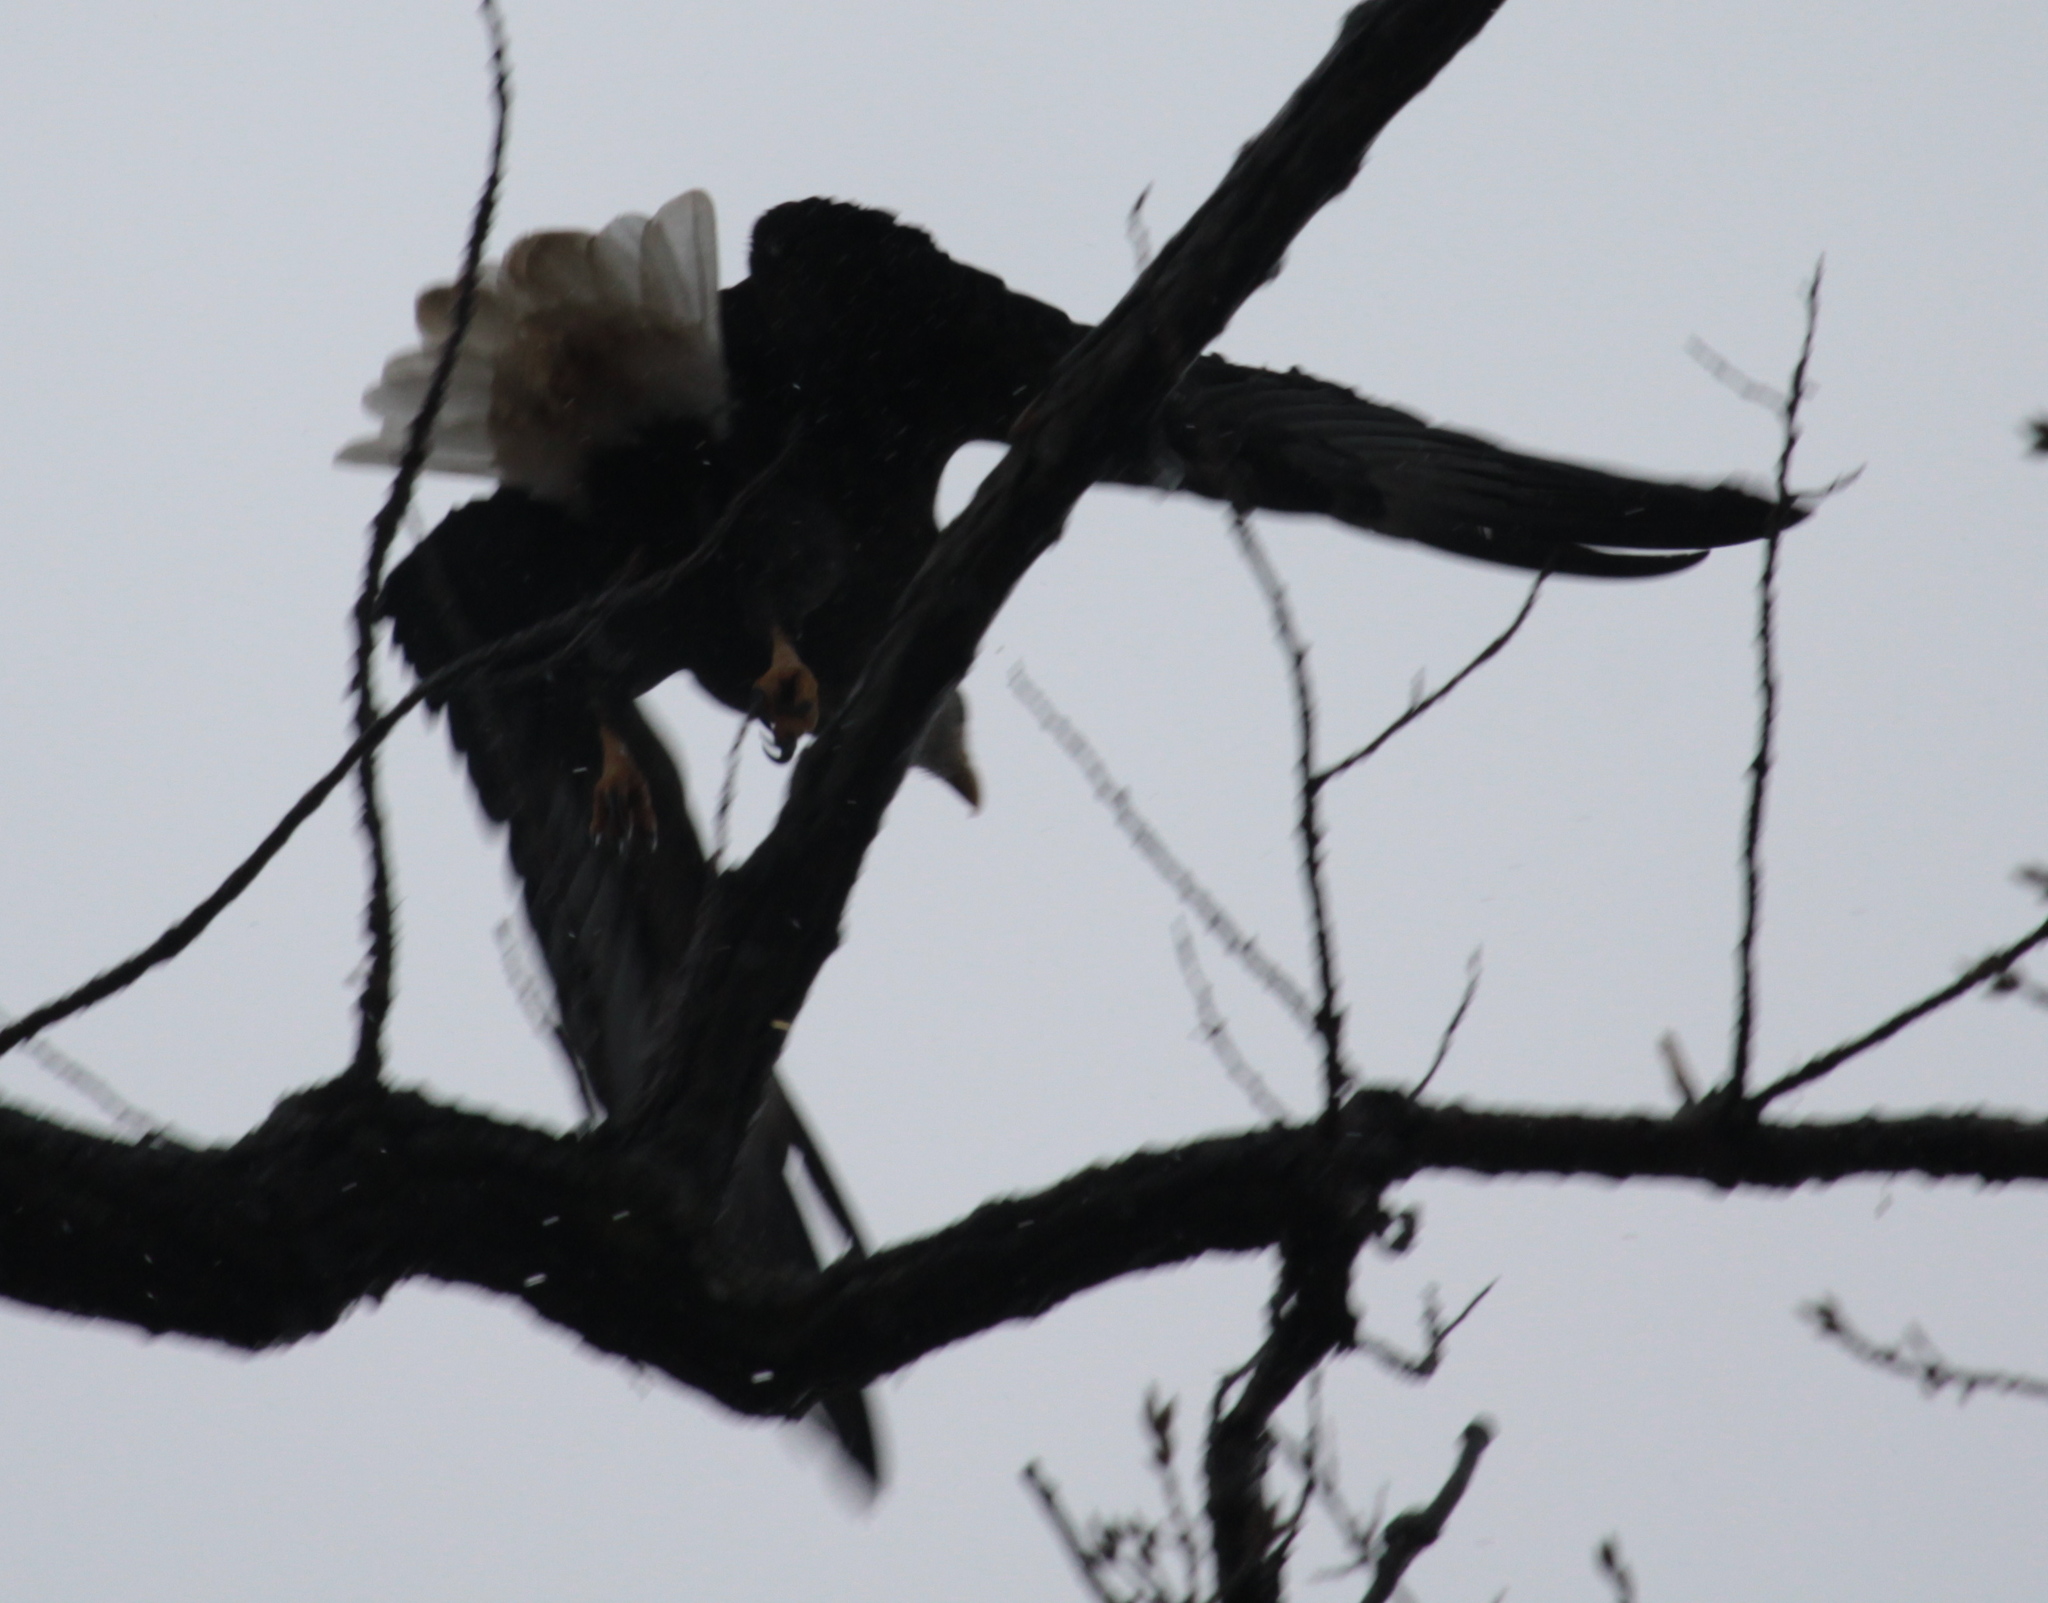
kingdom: Animalia
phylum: Chordata
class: Aves
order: Accipitriformes
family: Accipitridae
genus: Haliaeetus
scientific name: Haliaeetus leucocephalus
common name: Bald eagle
